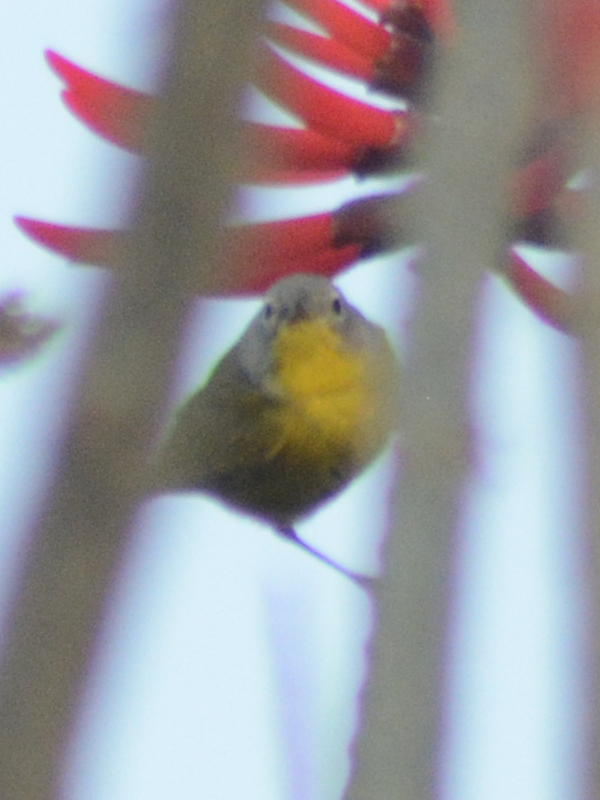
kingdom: Animalia
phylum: Chordata
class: Aves
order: Passeriformes
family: Parulidae
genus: Leiothlypis
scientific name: Leiothlypis ruficapilla
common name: Nashville warbler
